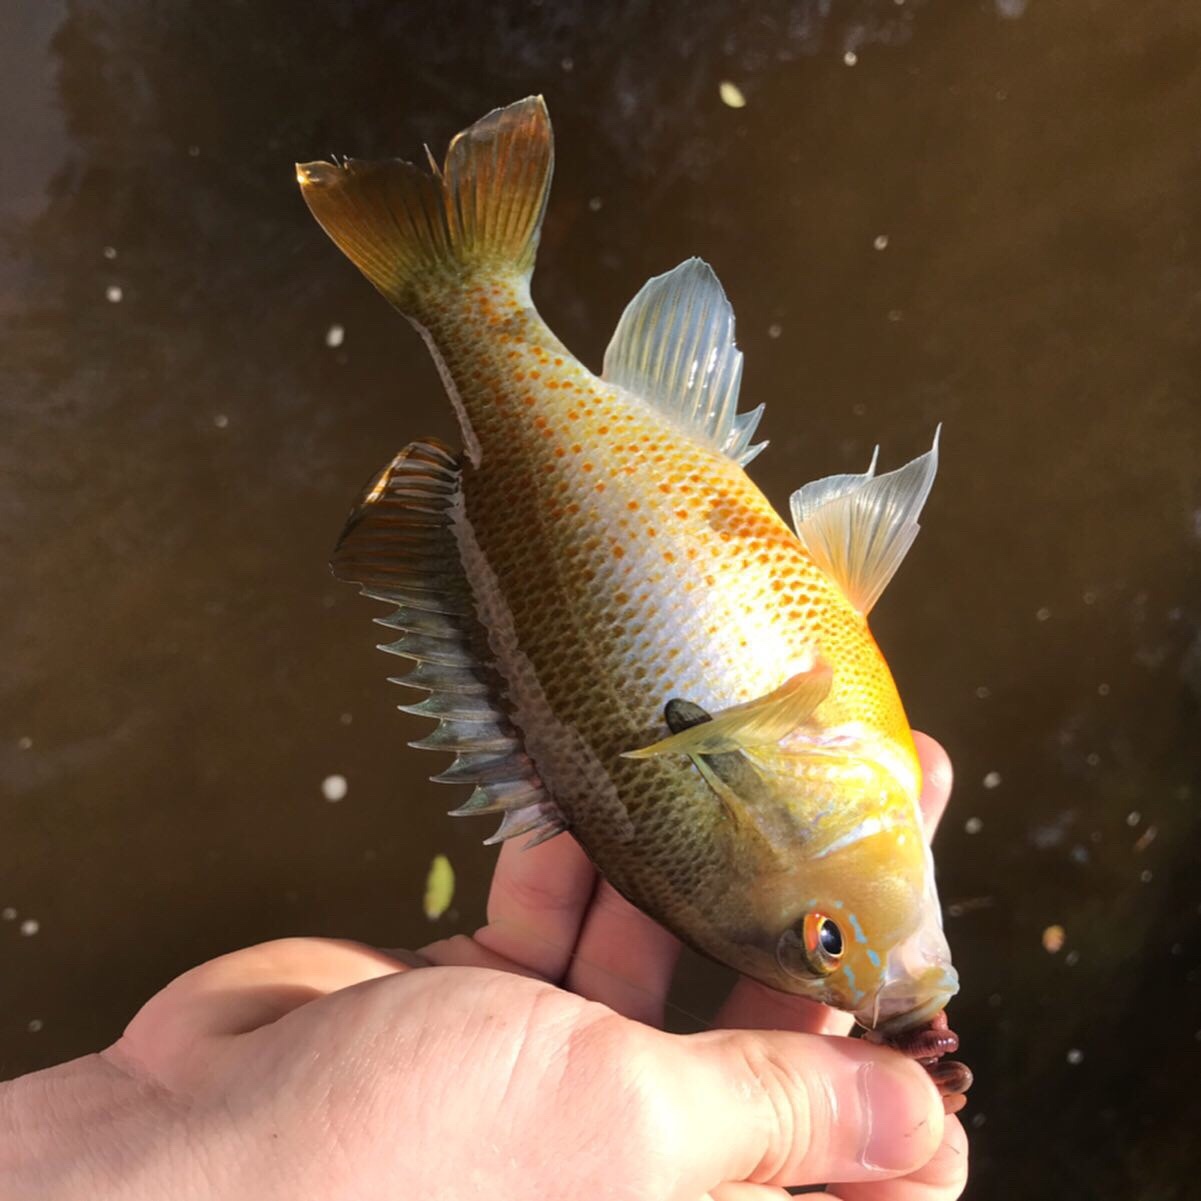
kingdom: Animalia
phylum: Chordata
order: Perciformes
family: Centrarchidae
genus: Lepomis
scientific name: Lepomis auritus
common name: Redbreast sunfish
